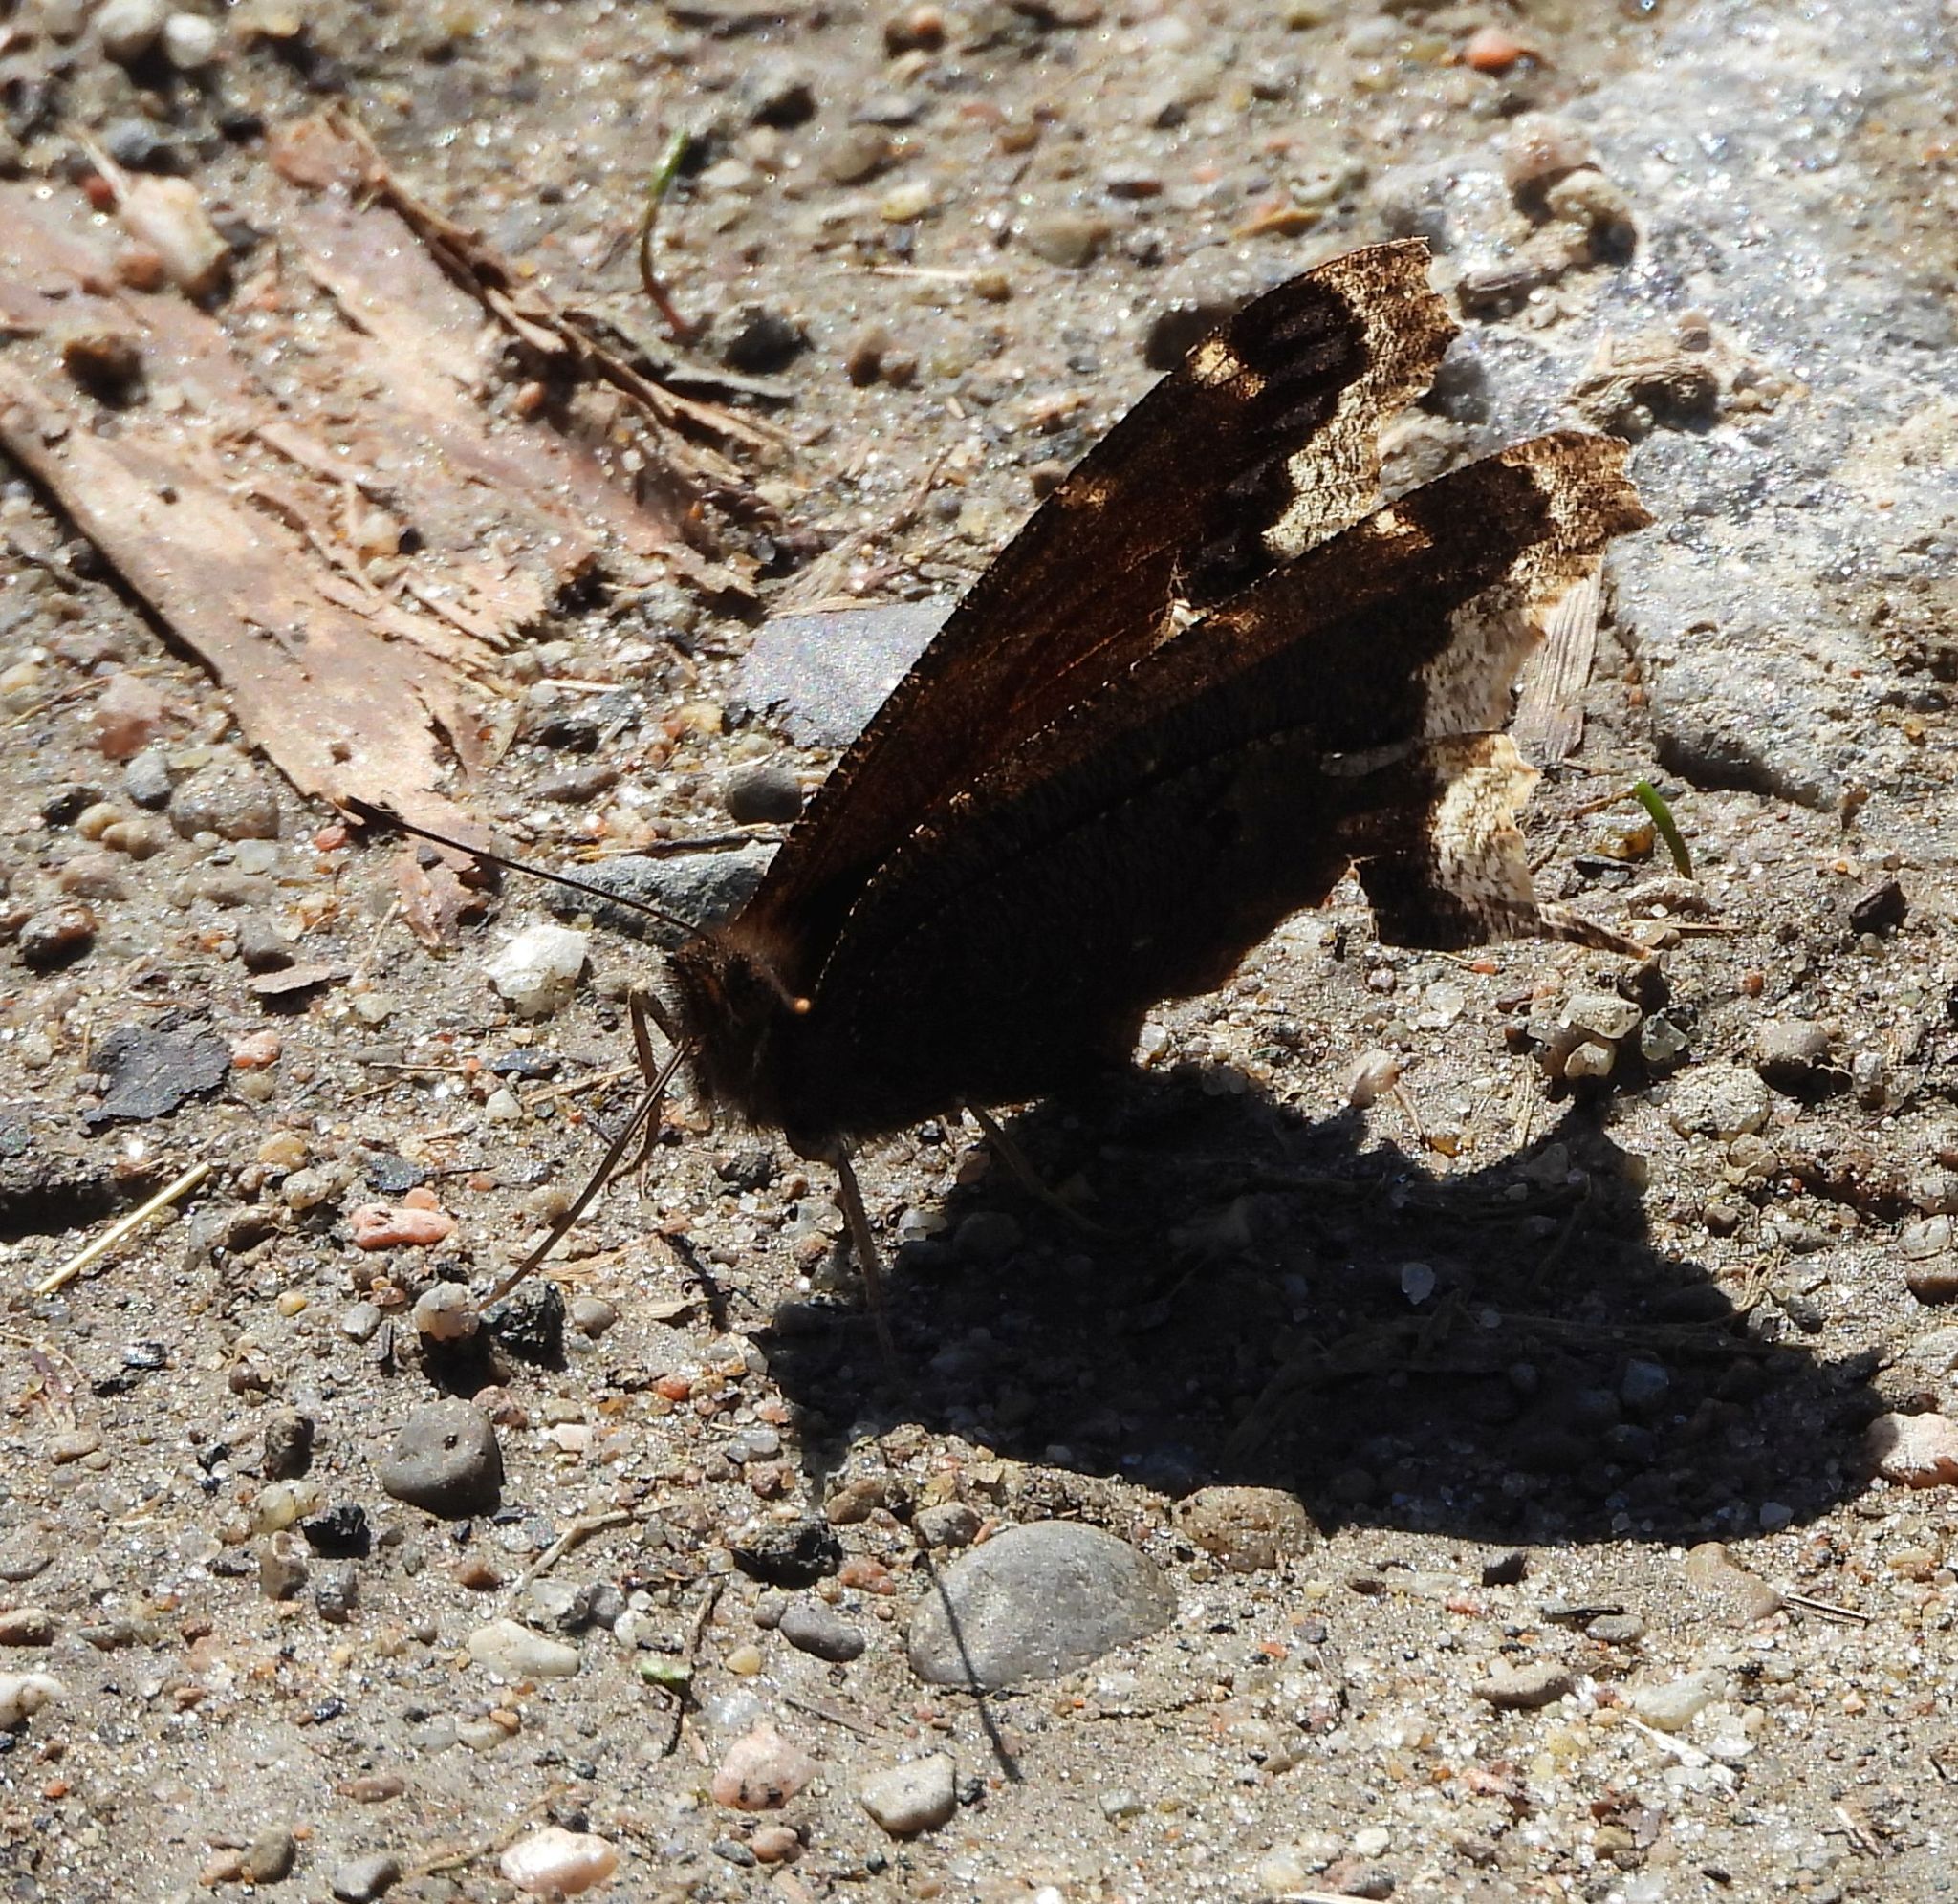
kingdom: Animalia
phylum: Arthropoda
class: Insecta
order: Lepidoptera
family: Nymphalidae
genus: Nymphalis
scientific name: Nymphalis antiopa
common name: Camberwell beauty
